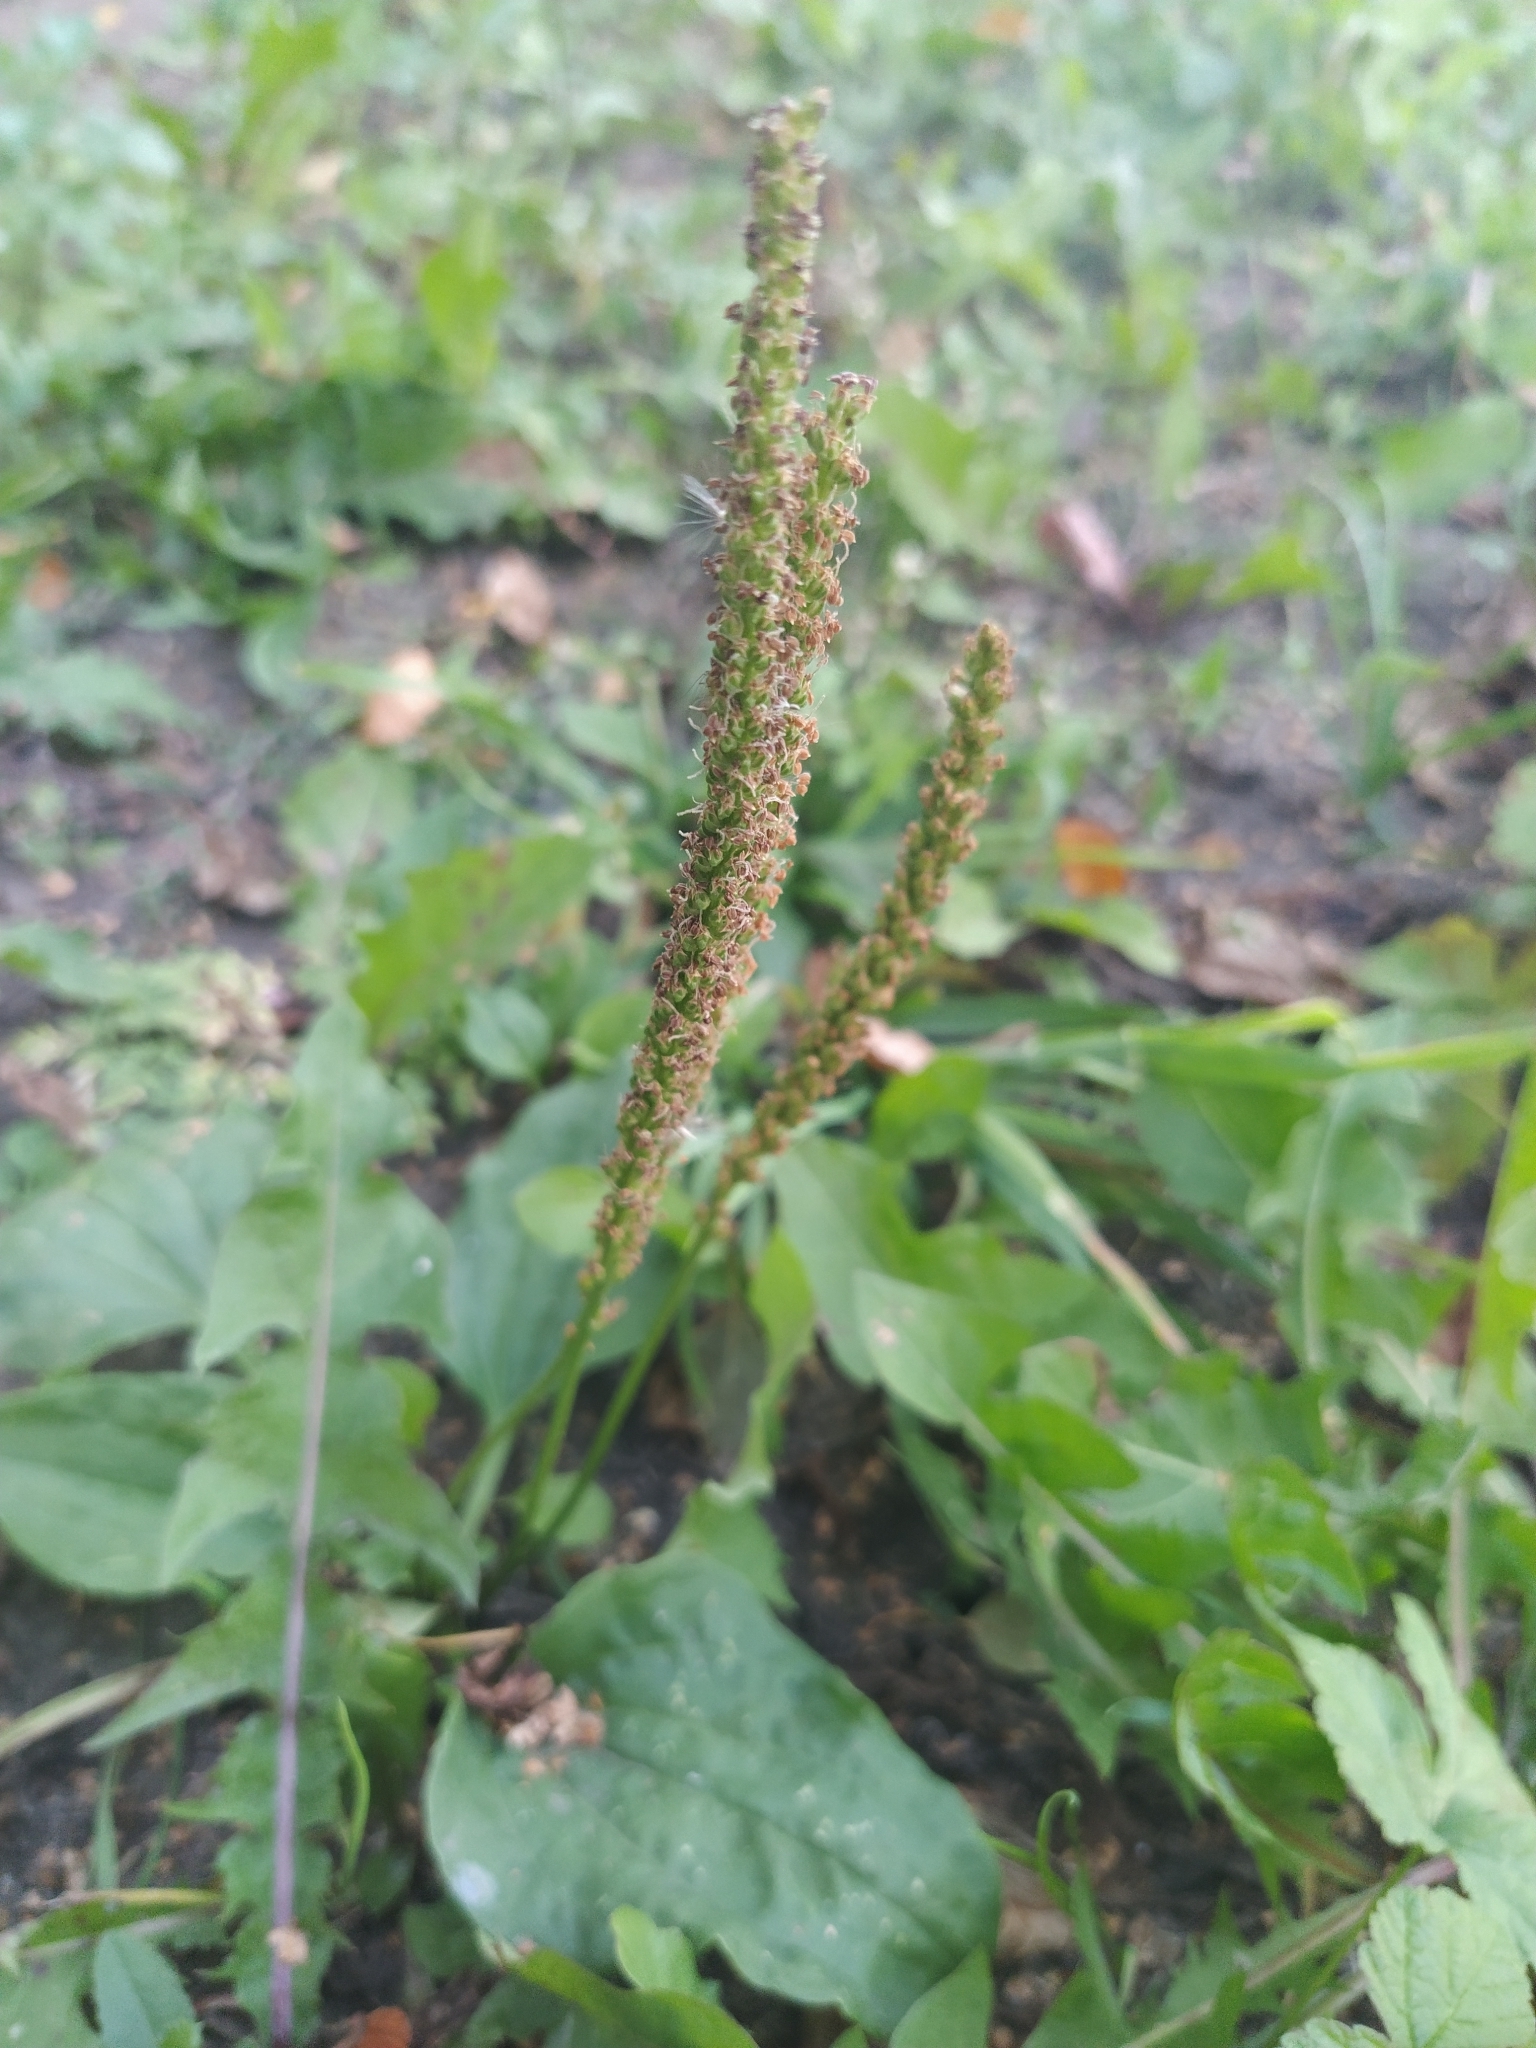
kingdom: Plantae
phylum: Tracheophyta
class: Magnoliopsida
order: Lamiales
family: Plantaginaceae
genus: Plantago
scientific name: Plantago major
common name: Common plantain
